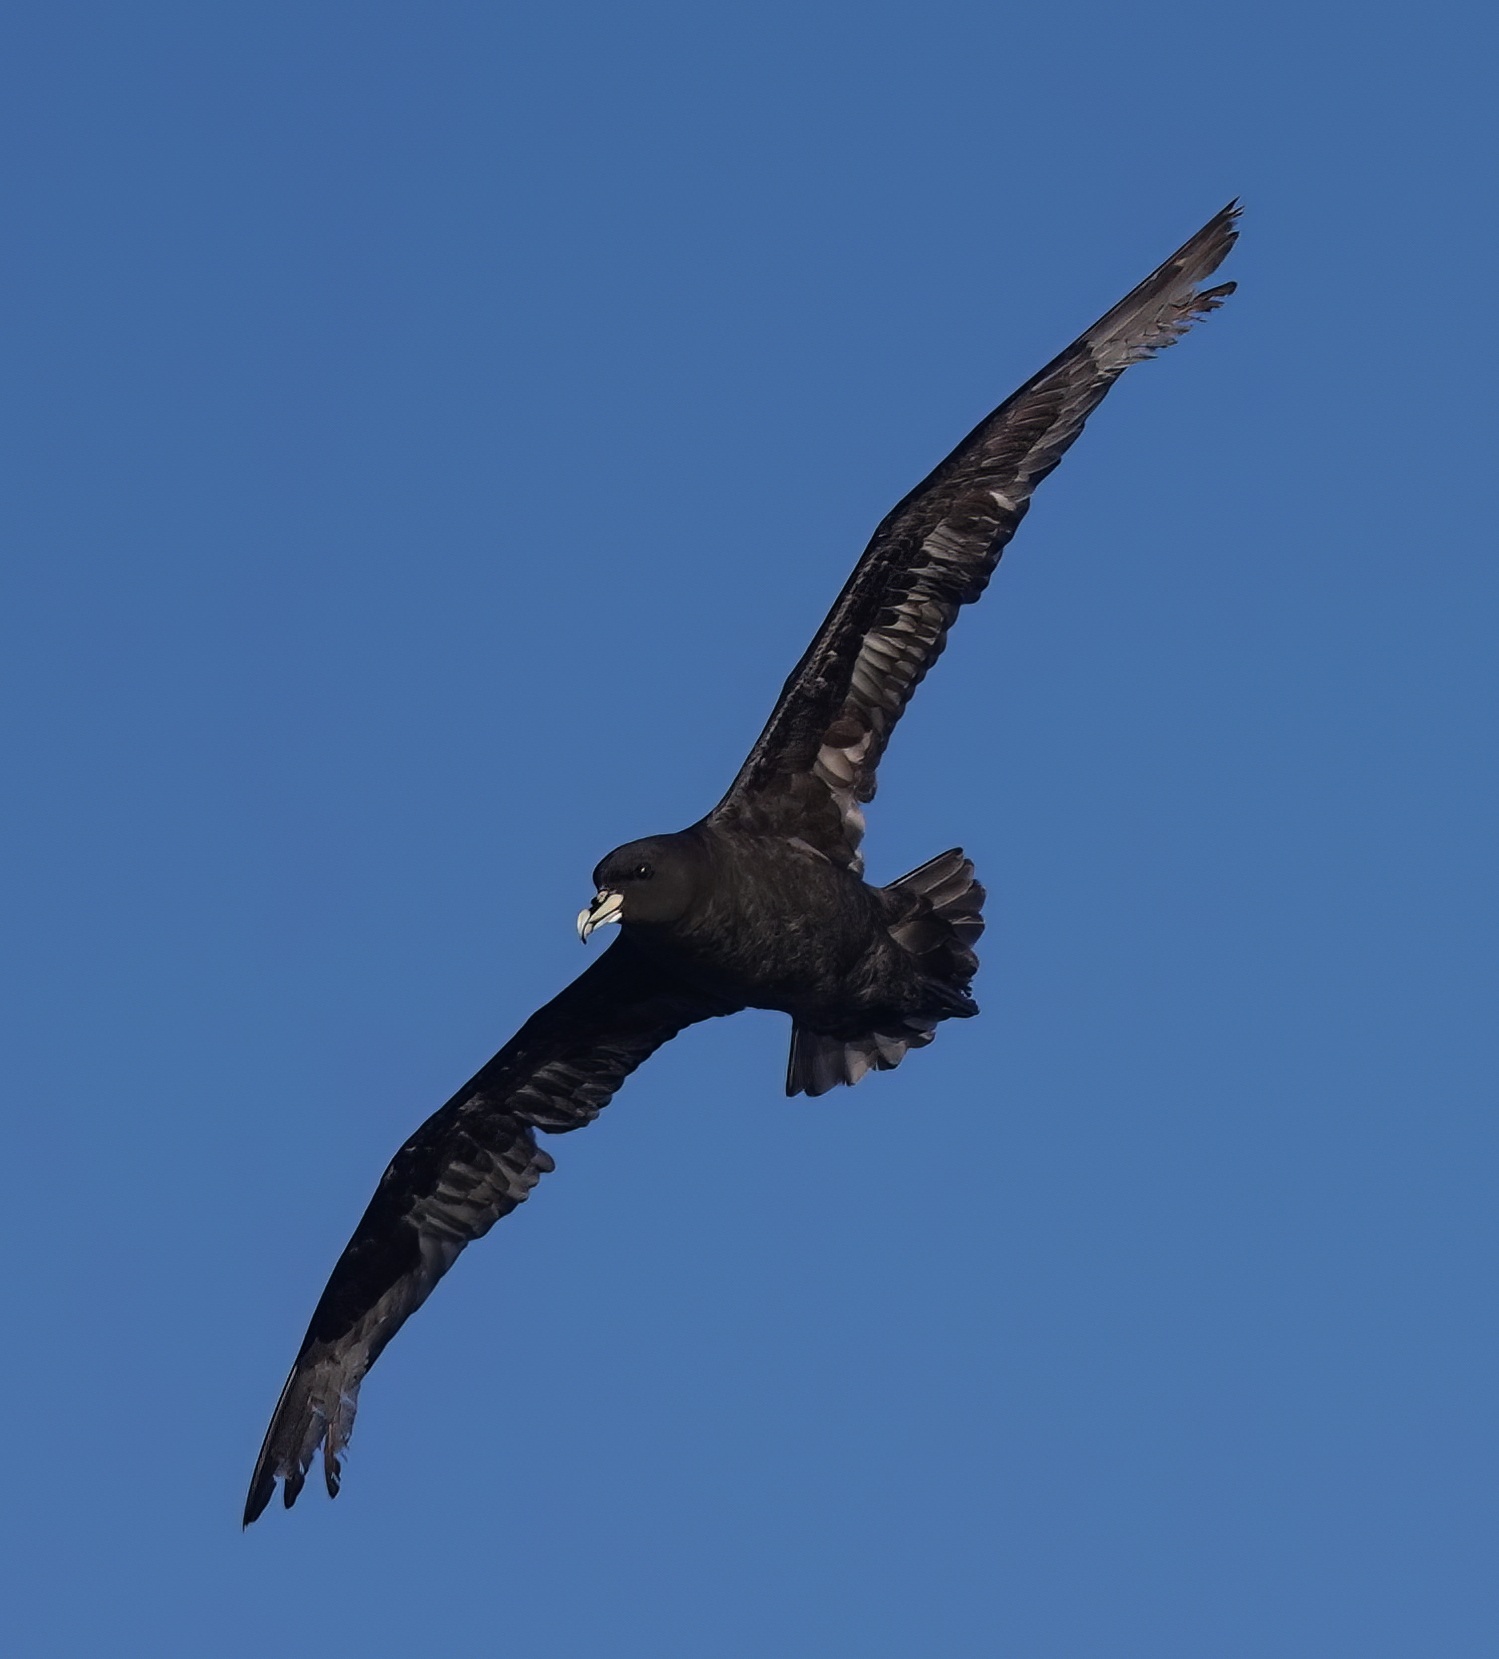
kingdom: Animalia
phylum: Chordata
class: Aves
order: Procellariiformes
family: Procellariidae
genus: Procellaria
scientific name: Procellaria aequinoctialis
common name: White-chinned petrel
